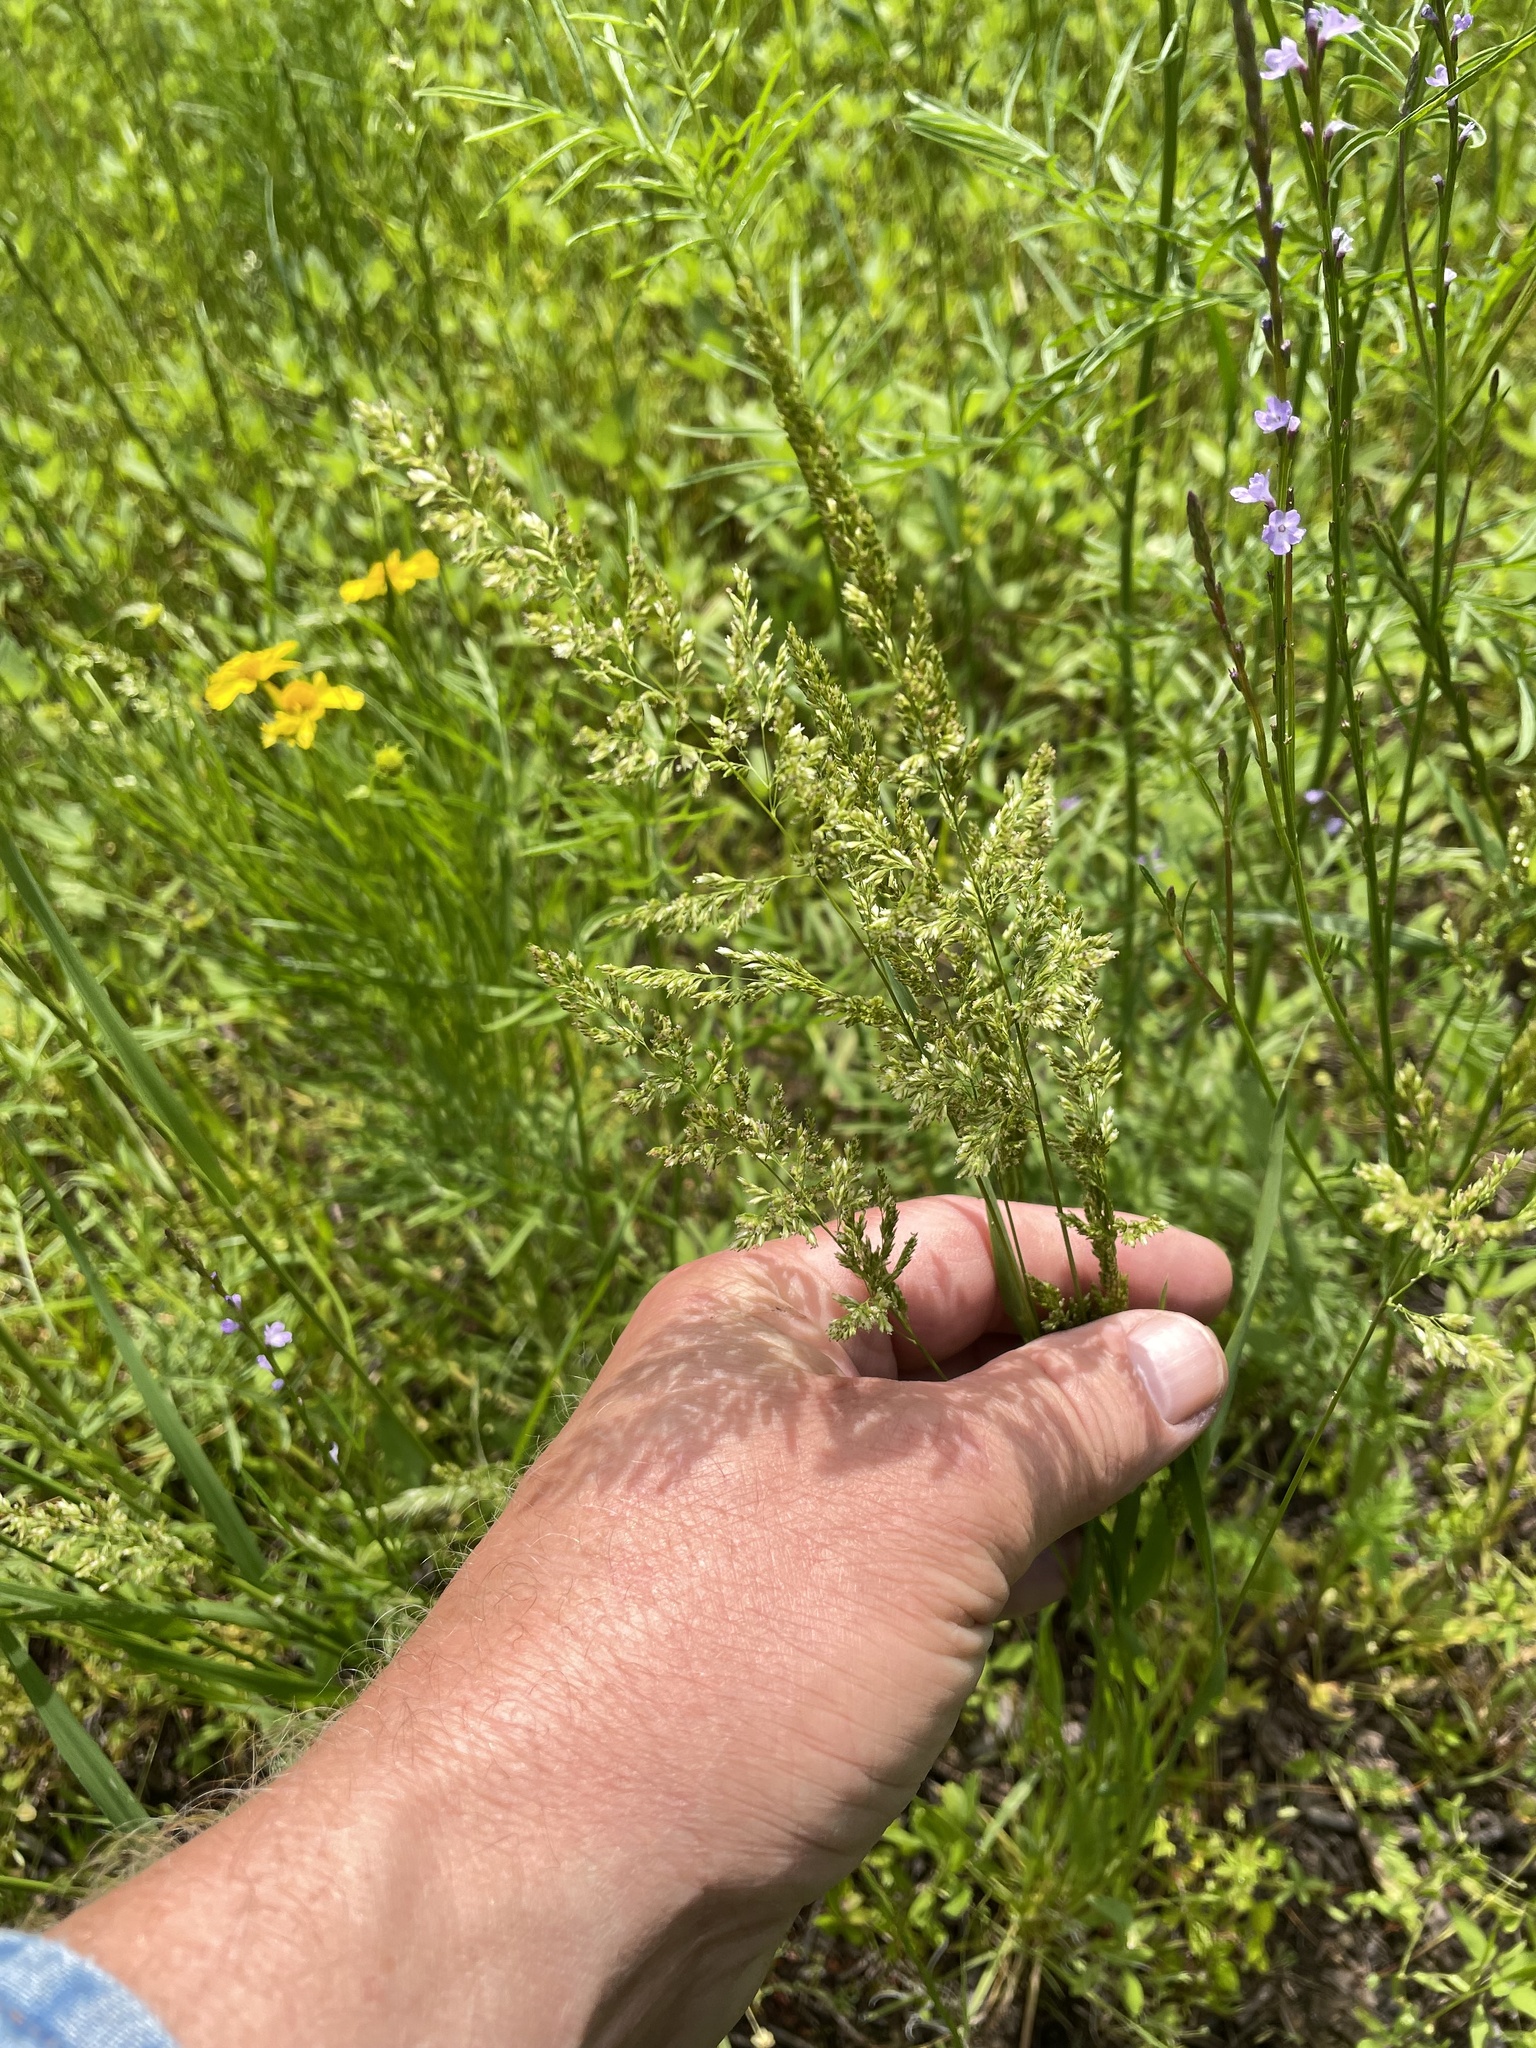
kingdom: Plantae
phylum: Tracheophyta
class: Liliopsida
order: Poales
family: Poaceae
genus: Sphenopholis
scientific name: Sphenopholis obtusata
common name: Prairie grass
